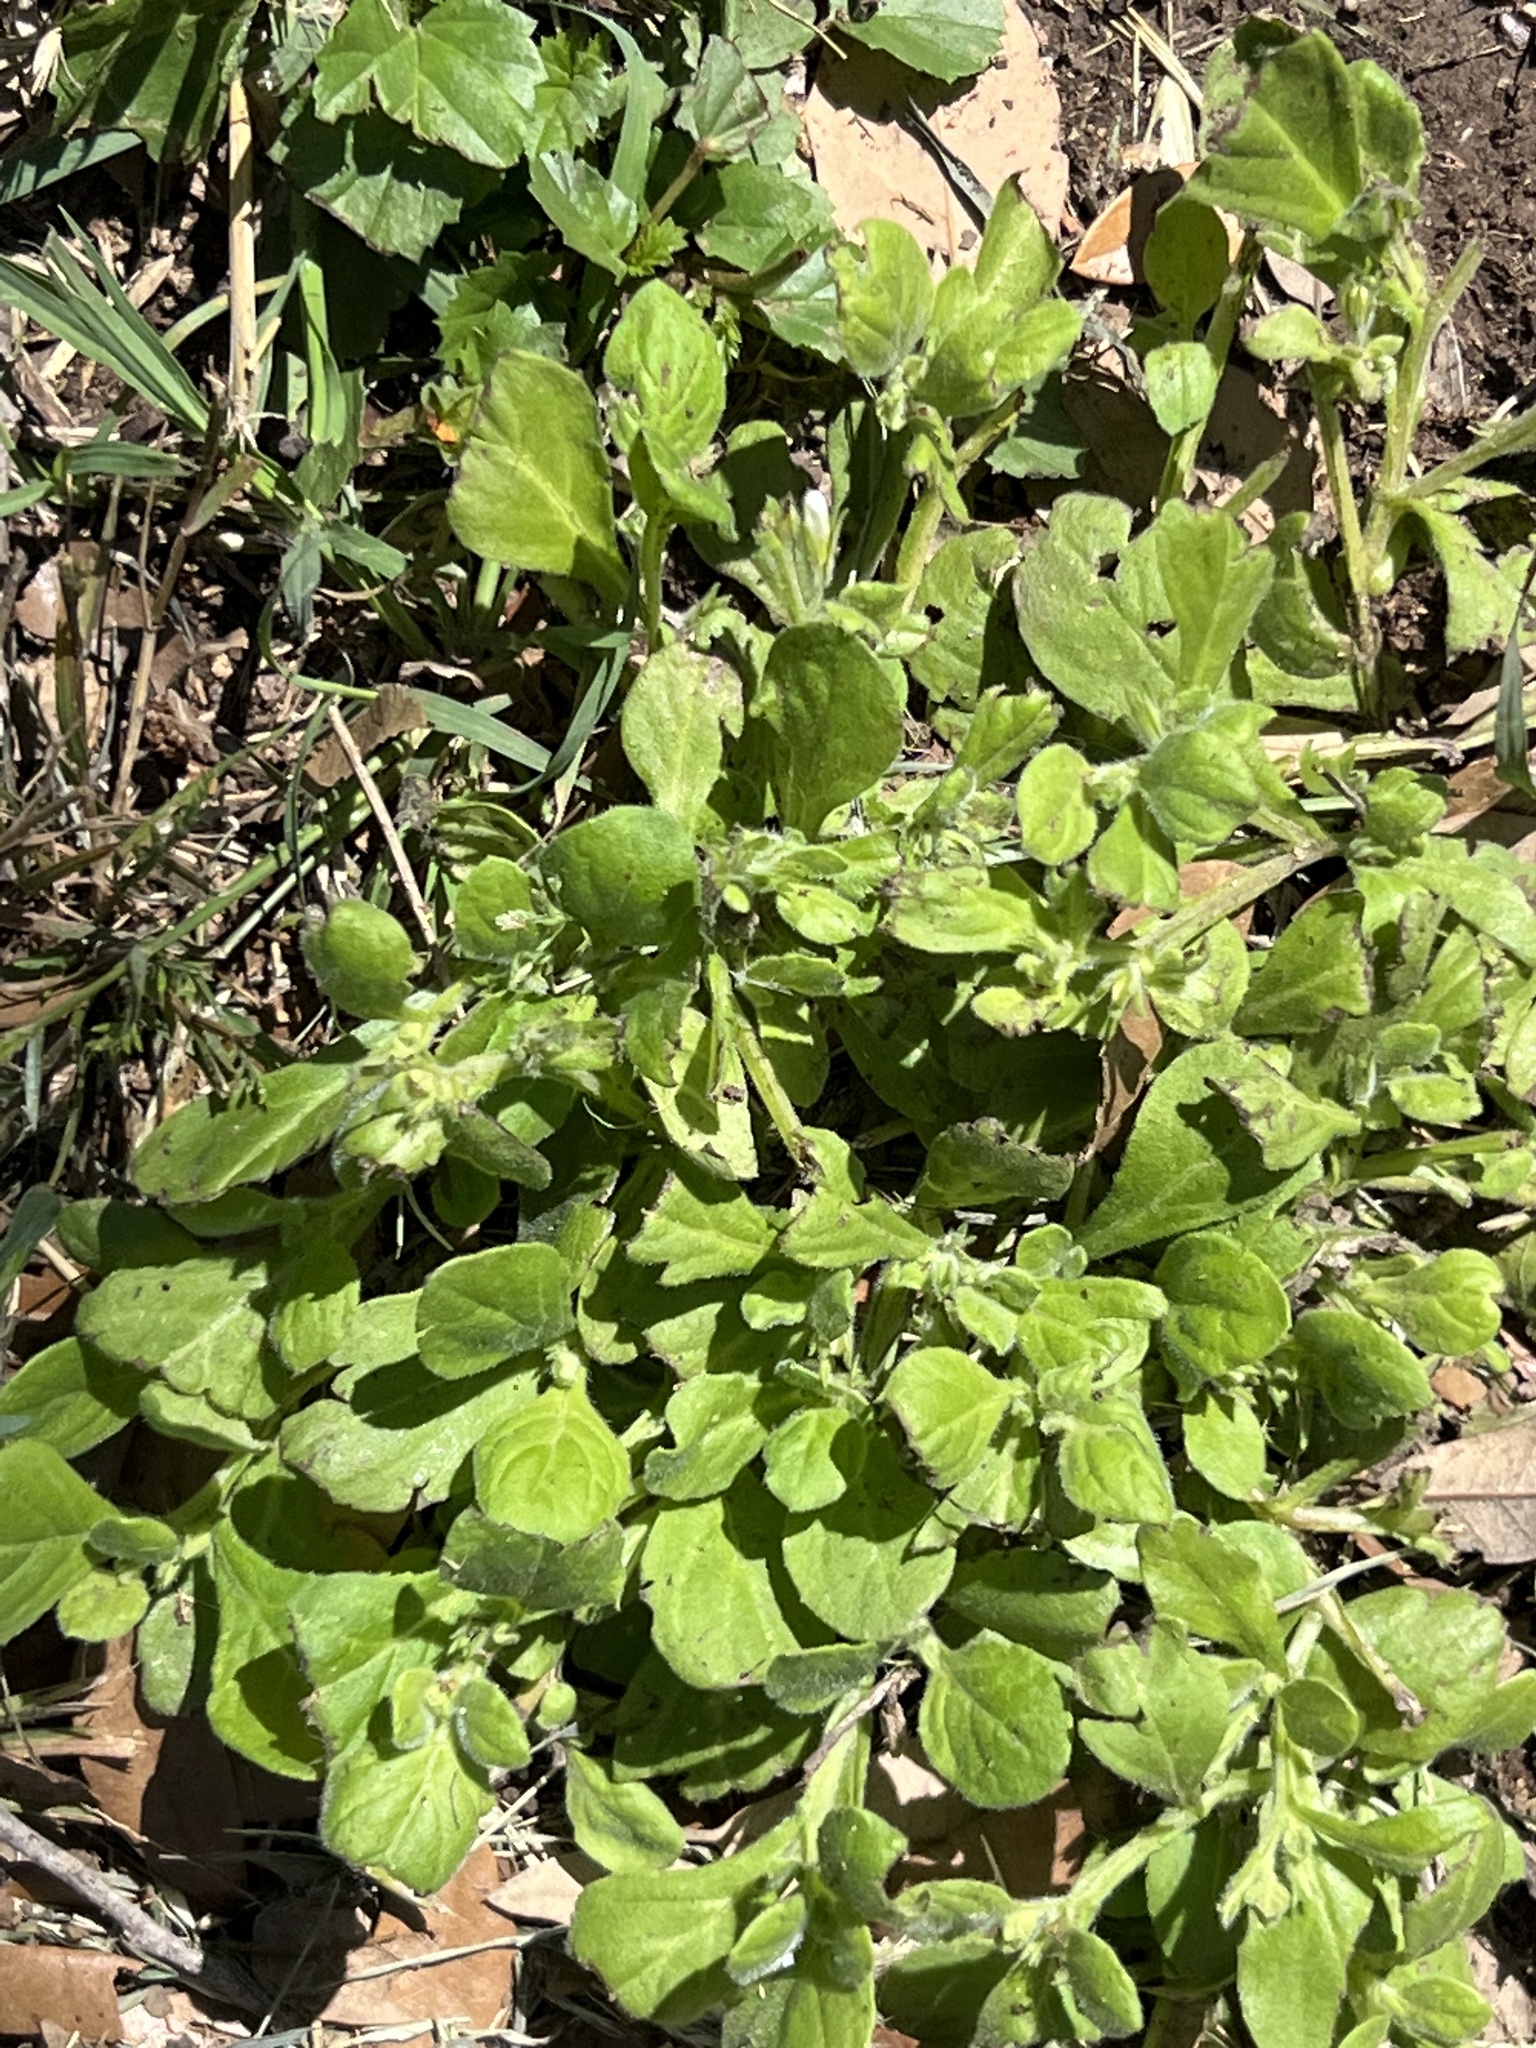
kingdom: Plantae
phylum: Tracheophyta
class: Magnoliopsida
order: Boraginales
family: Namaceae
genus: Nama
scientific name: Nama jamaicensis
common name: Jamaicanweed
